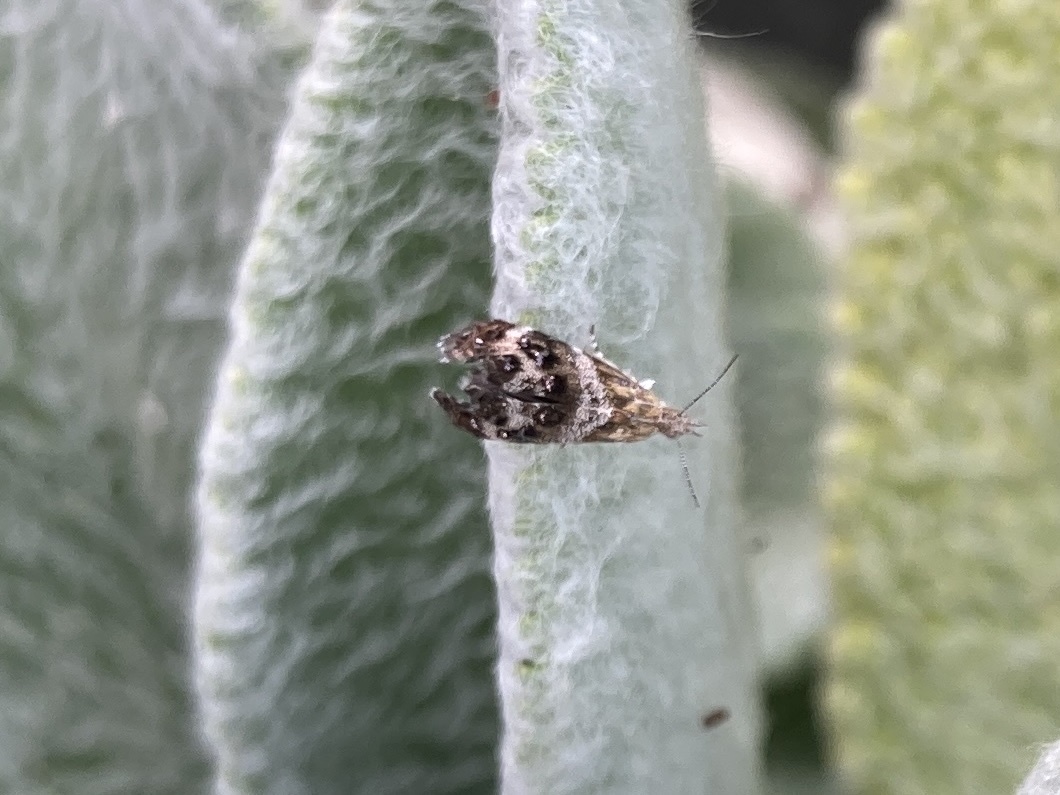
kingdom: Animalia
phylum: Arthropoda
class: Insecta
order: Lepidoptera
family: Choreutidae
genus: Tebenna
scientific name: Tebenna micalis
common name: Vagrant twitcher
